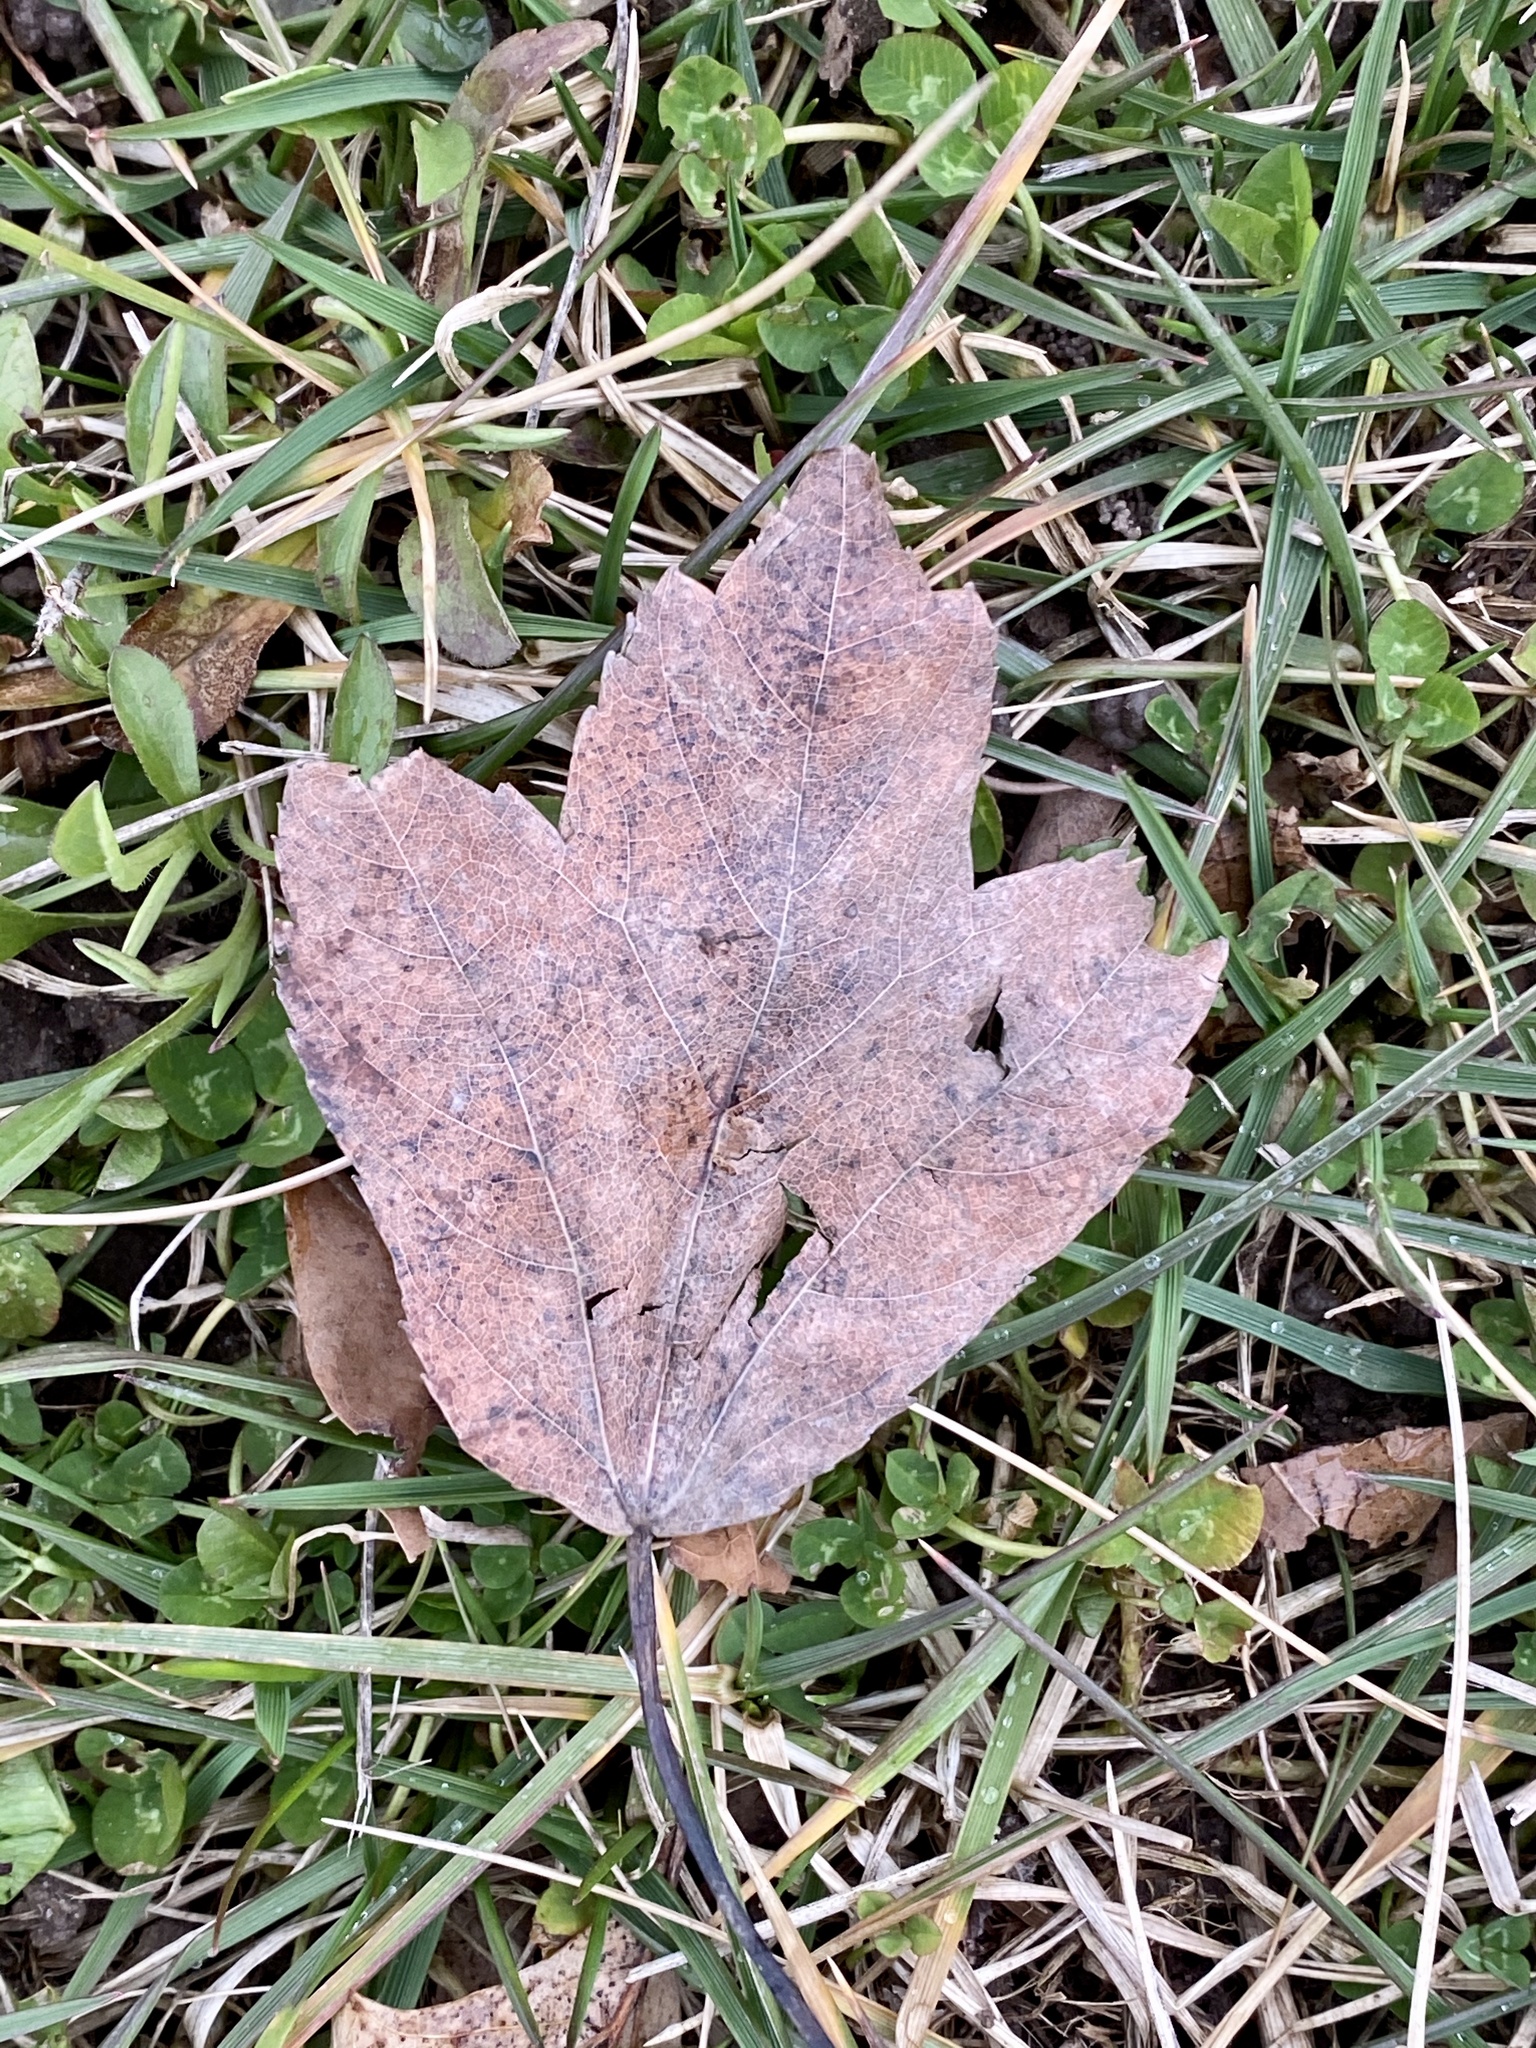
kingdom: Plantae
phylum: Tracheophyta
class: Magnoliopsida
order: Sapindales
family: Sapindaceae
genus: Acer
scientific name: Acer rubrum
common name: Red maple
